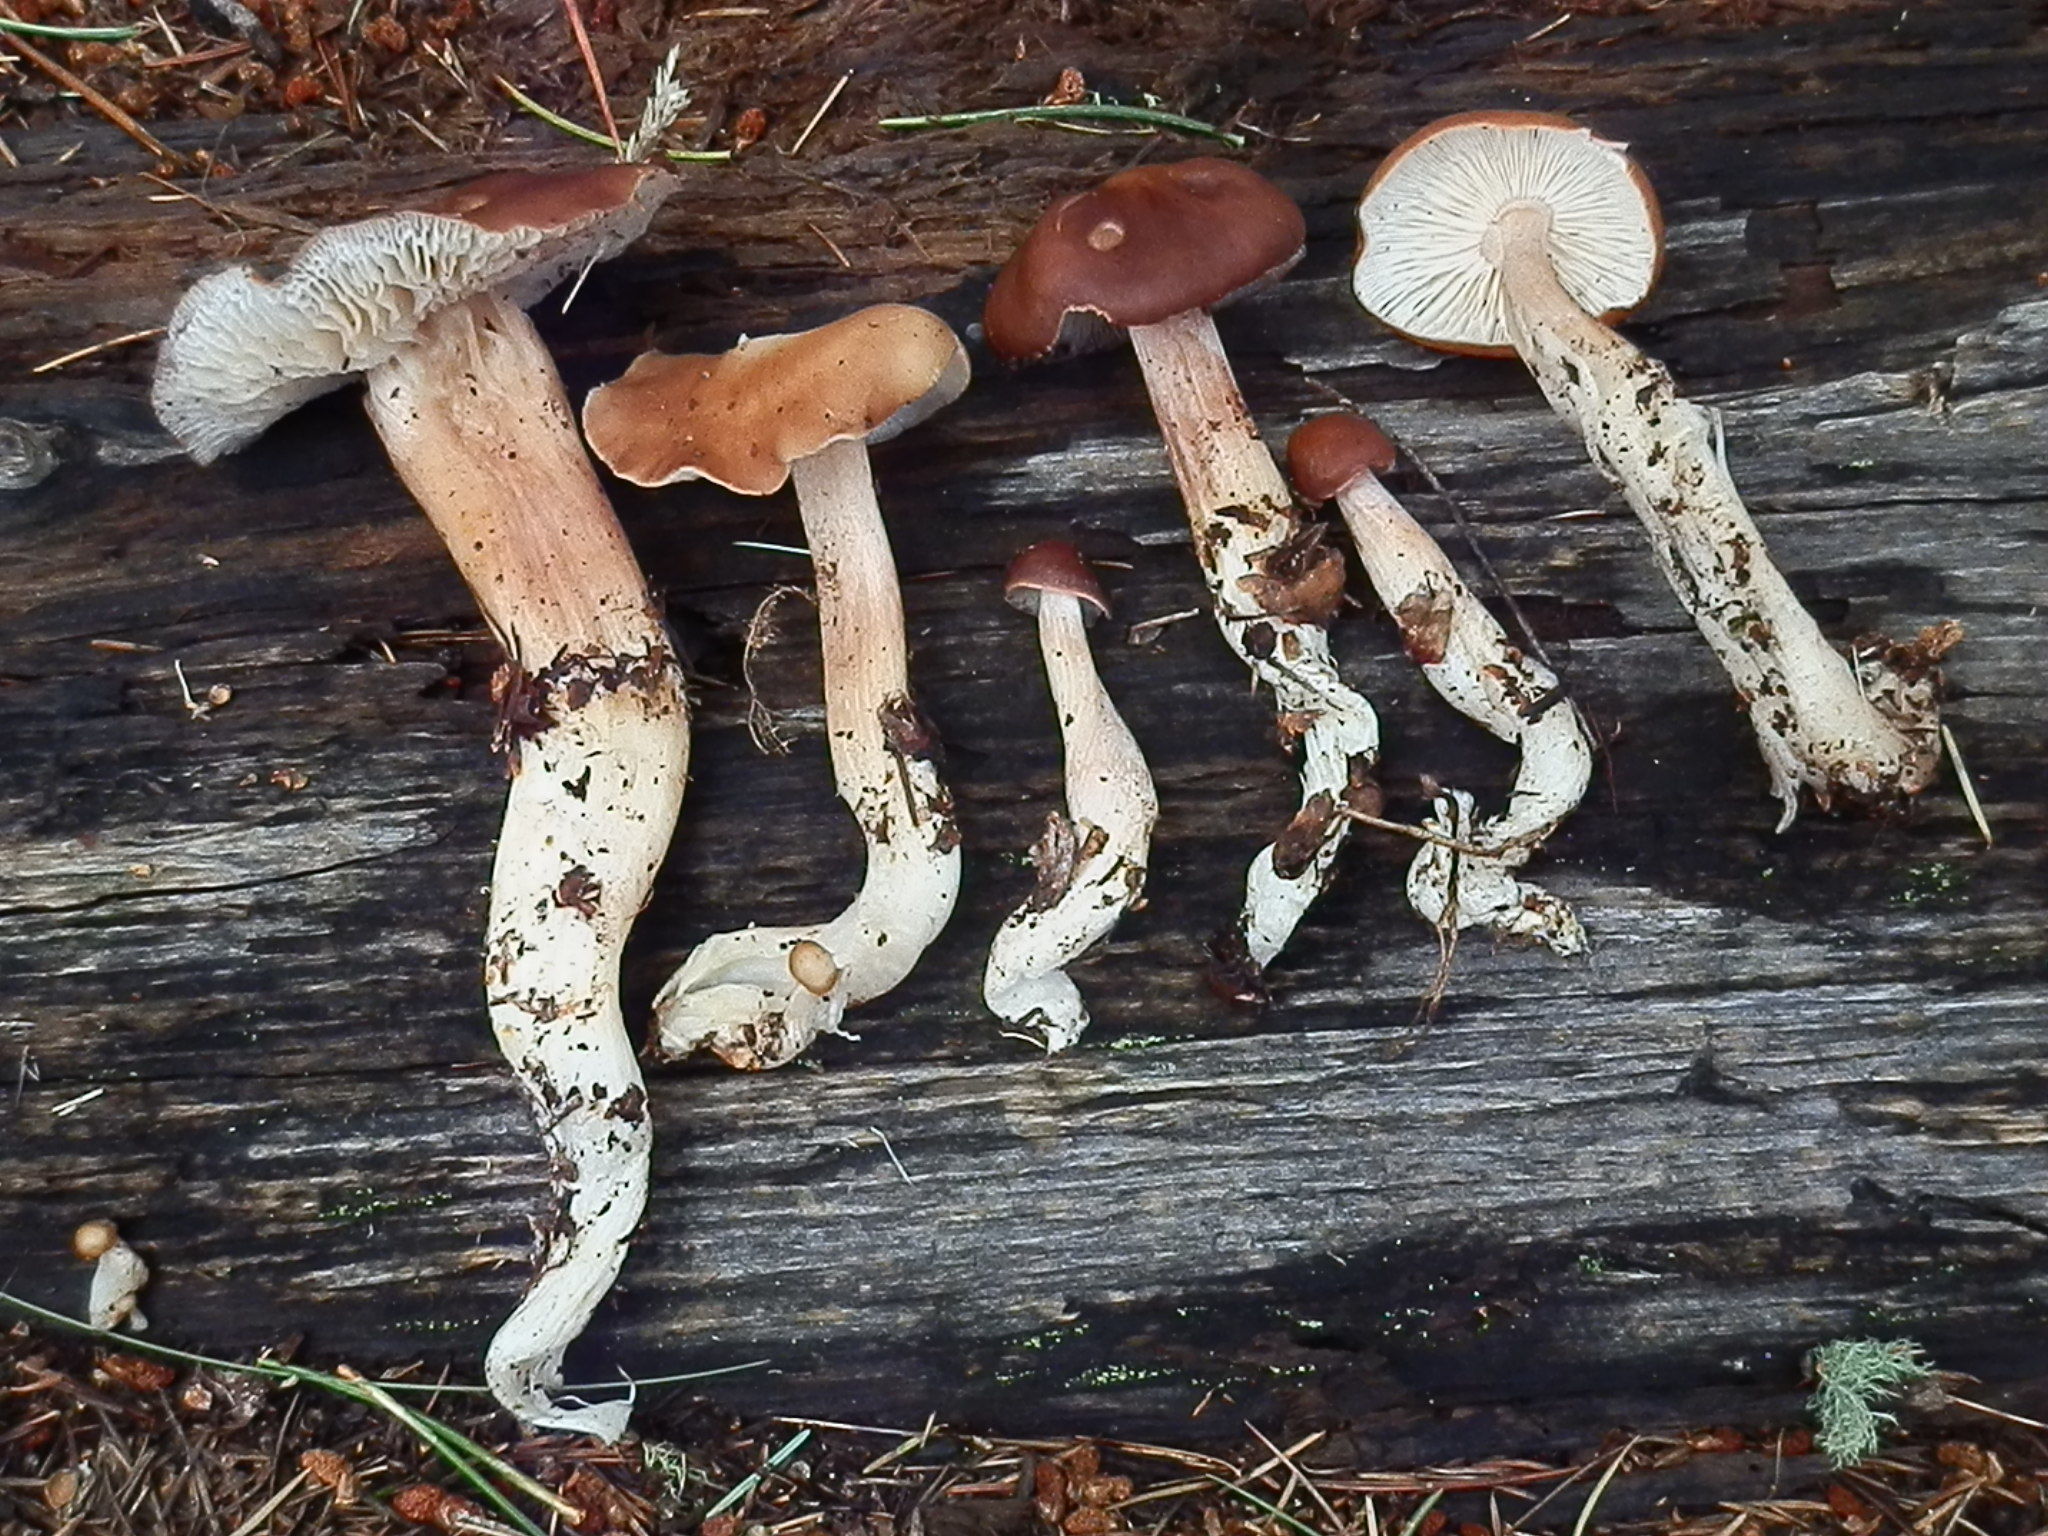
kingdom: Fungi
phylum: Basidiomycota
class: Agaricomycetes
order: Agaricales
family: Omphalotaceae
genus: Rhodocollybia
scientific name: Rhodocollybia butyracea
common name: Butter cap
